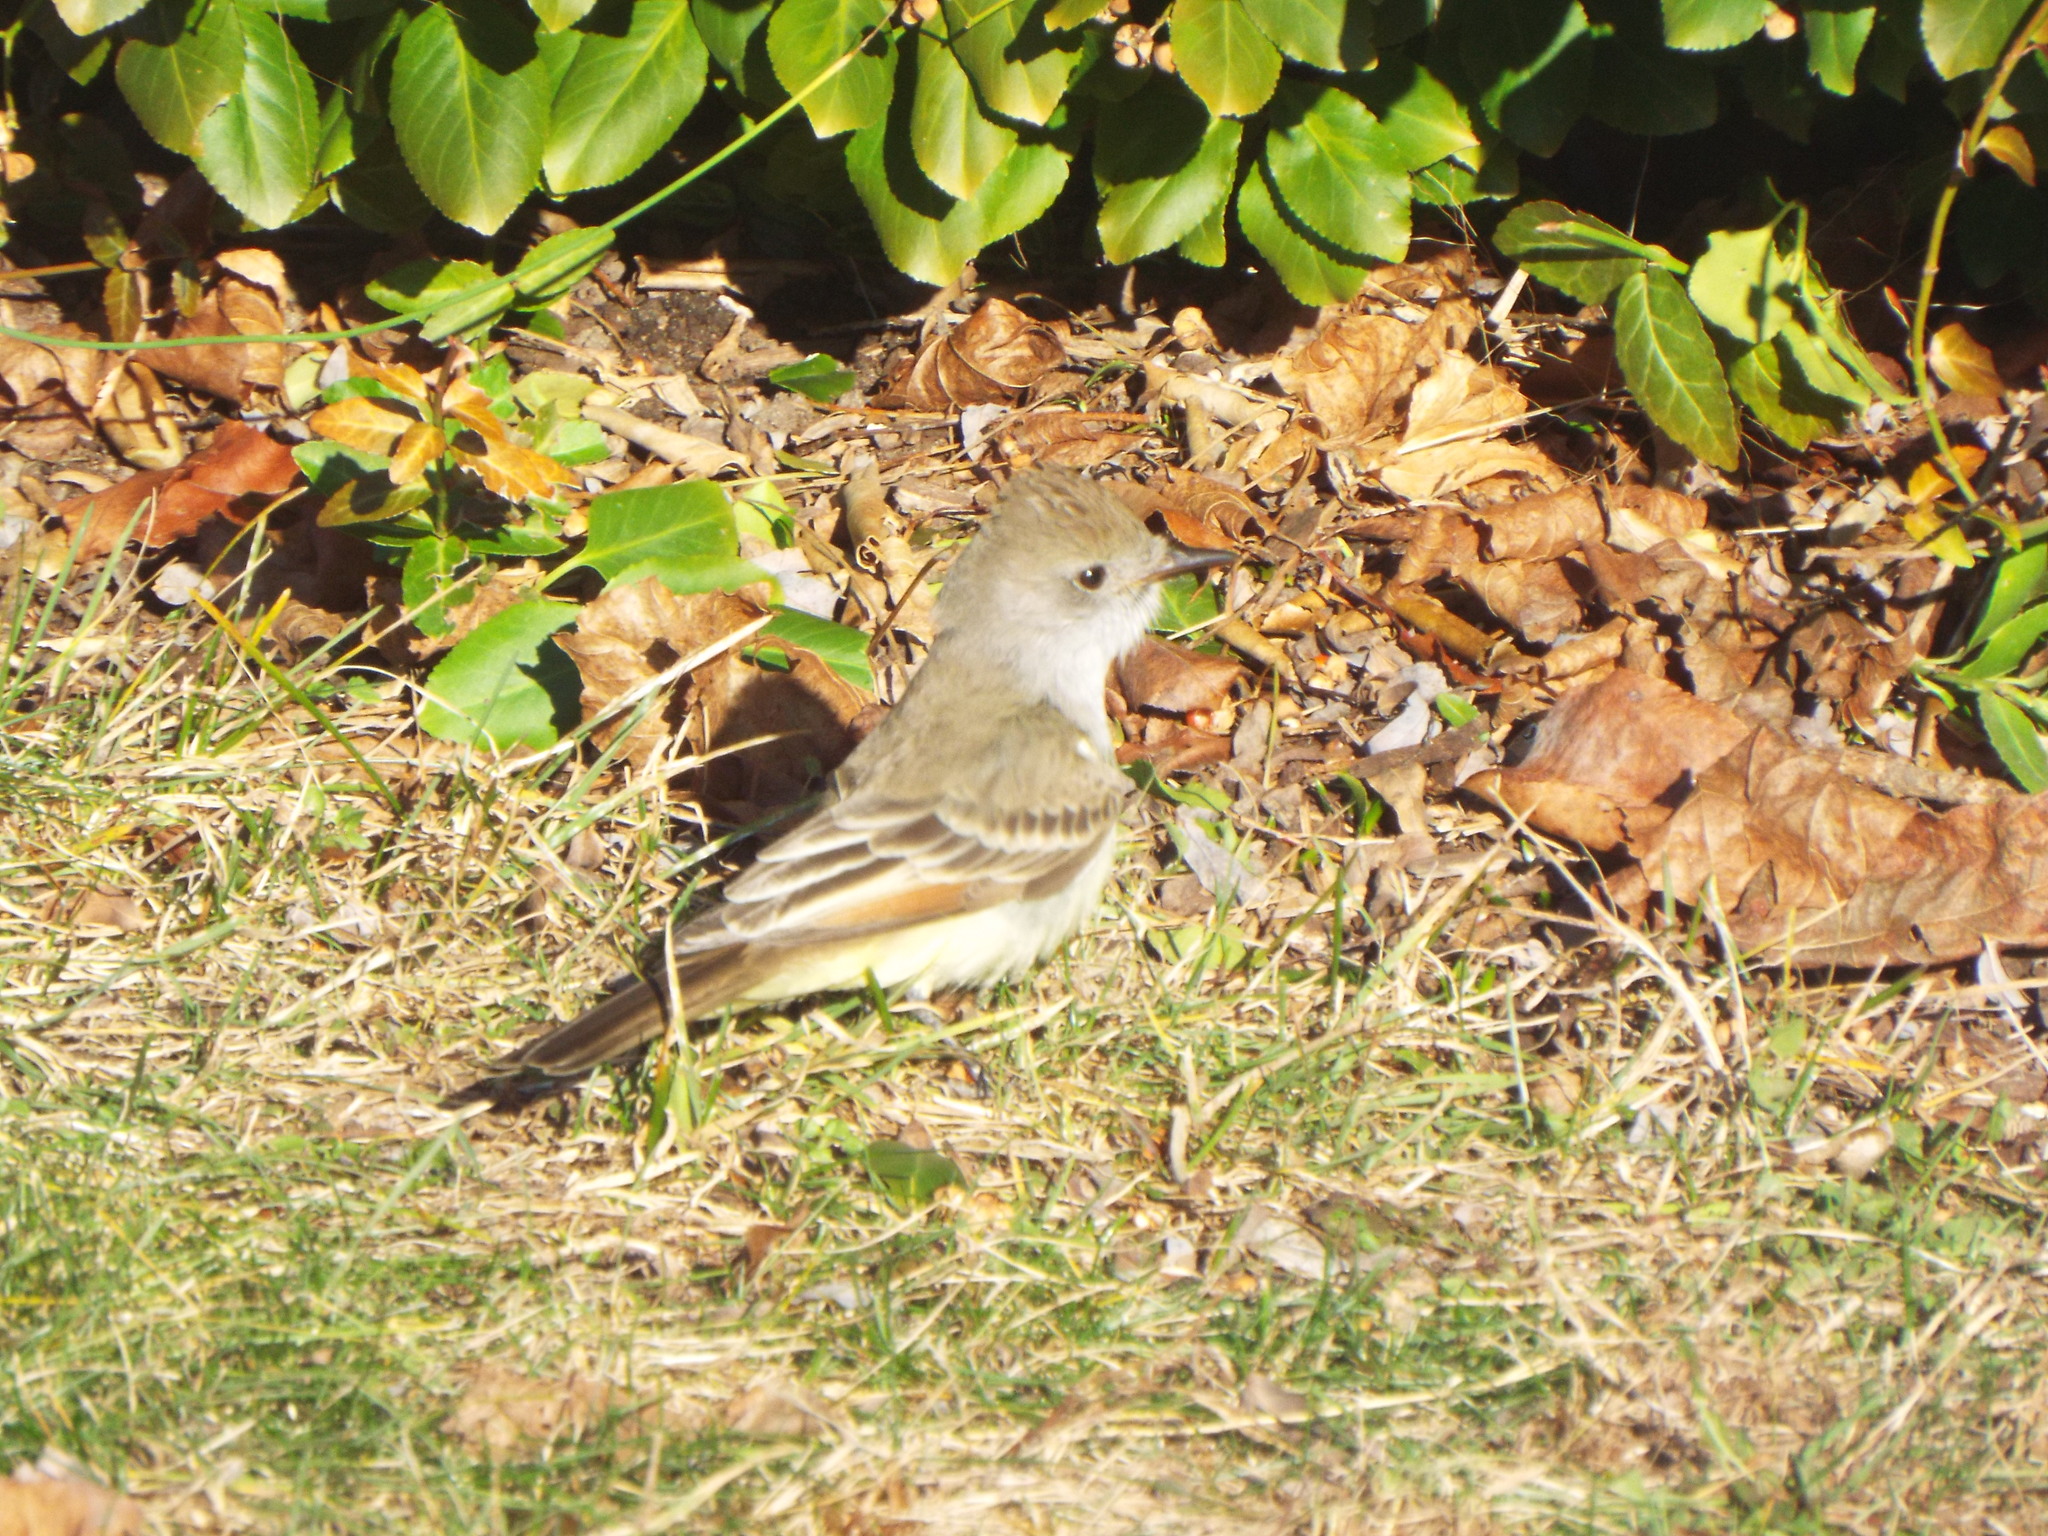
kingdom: Animalia
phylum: Chordata
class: Aves
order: Passeriformes
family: Tyrannidae
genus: Myiarchus
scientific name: Myiarchus cinerascens
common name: Ash-throated flycatcher
